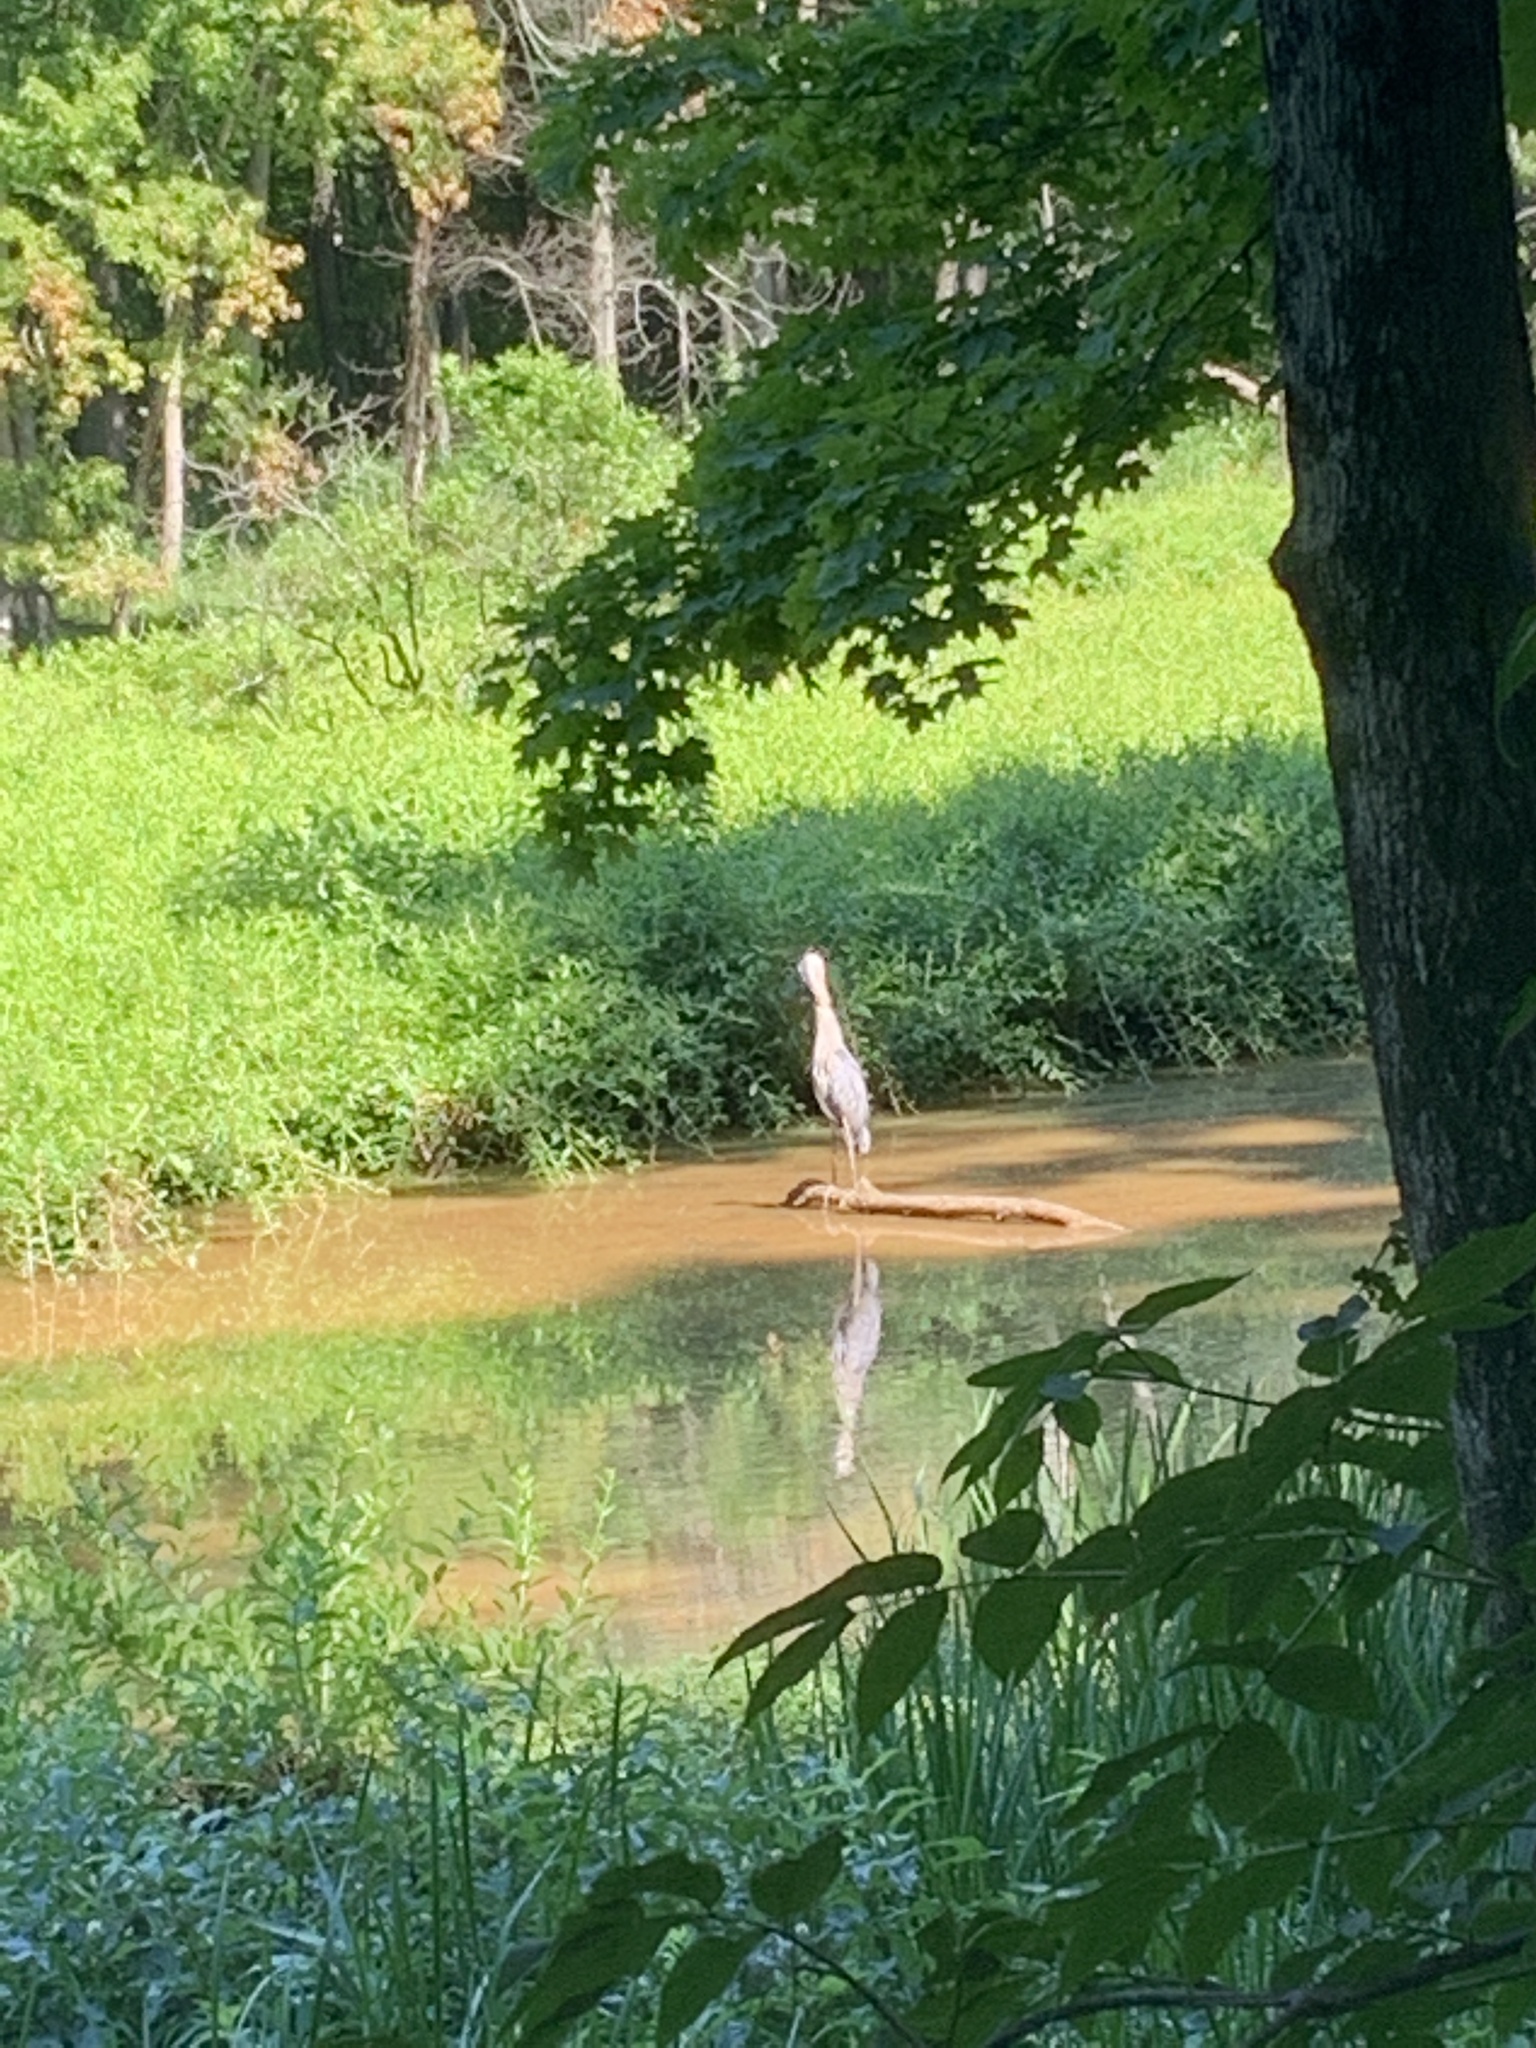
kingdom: Animalia
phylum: Chordata
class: Aves
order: Pelecaniformes
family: Ardeidae
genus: Ardea
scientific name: Ardea herodias
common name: Great blue heron
